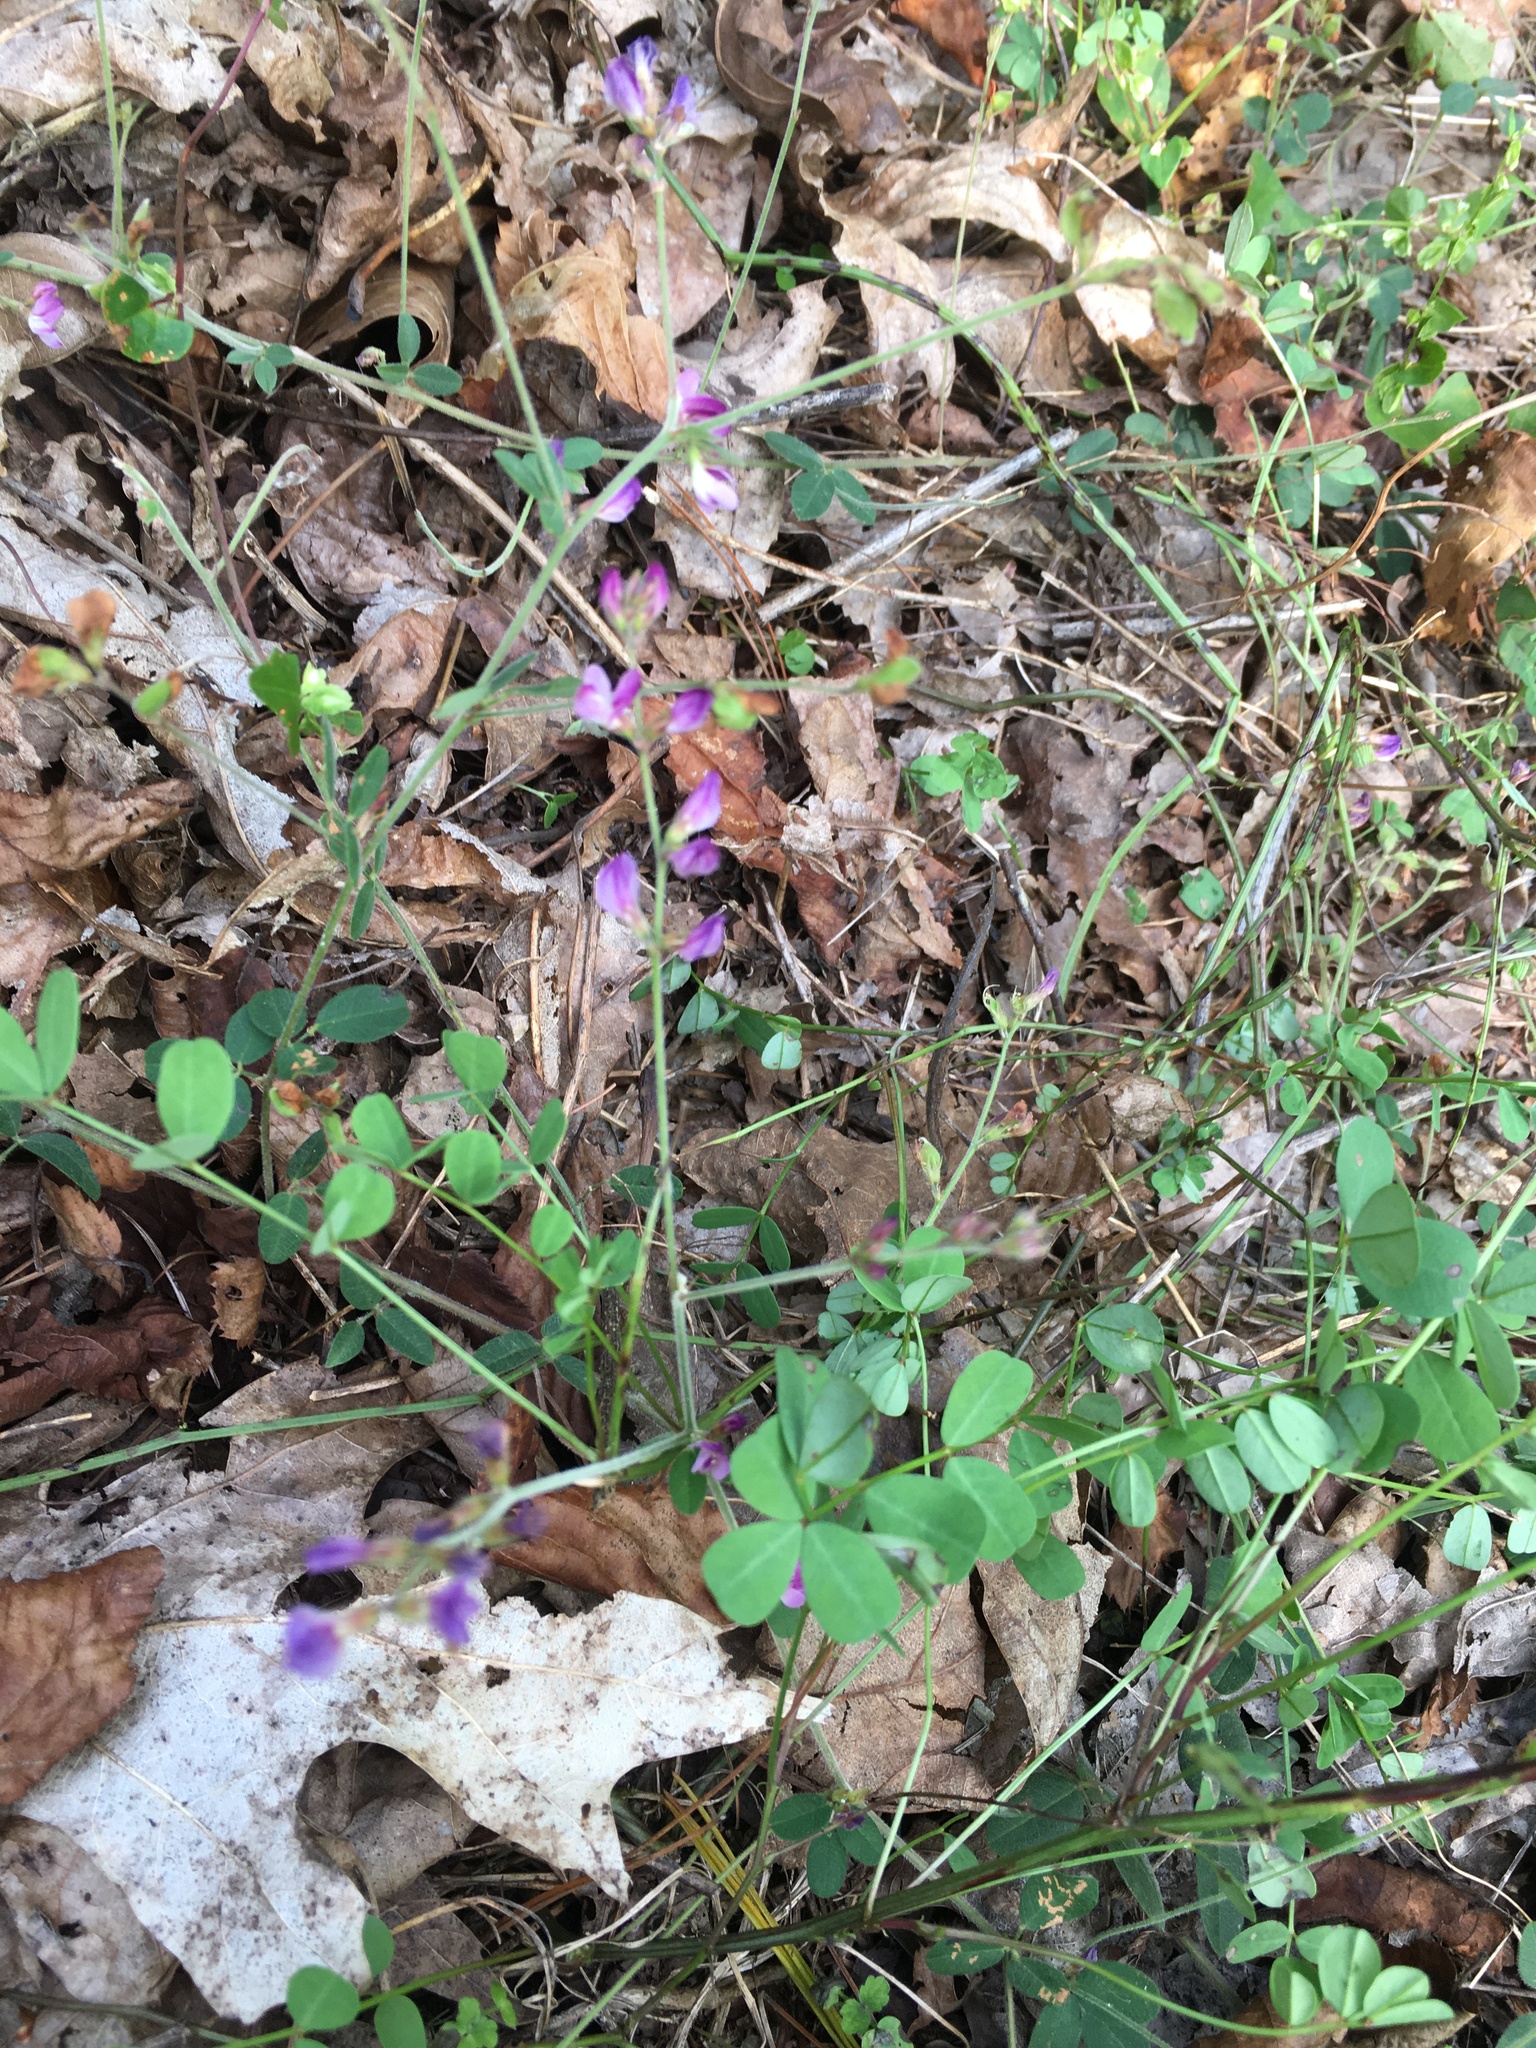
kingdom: Plantae
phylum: Tracheophyta
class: Magnoliopsida
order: Fabales
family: Fabaceae
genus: Lespedeza
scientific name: Lespedeza procumbens
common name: Downy trailing bush-clover
